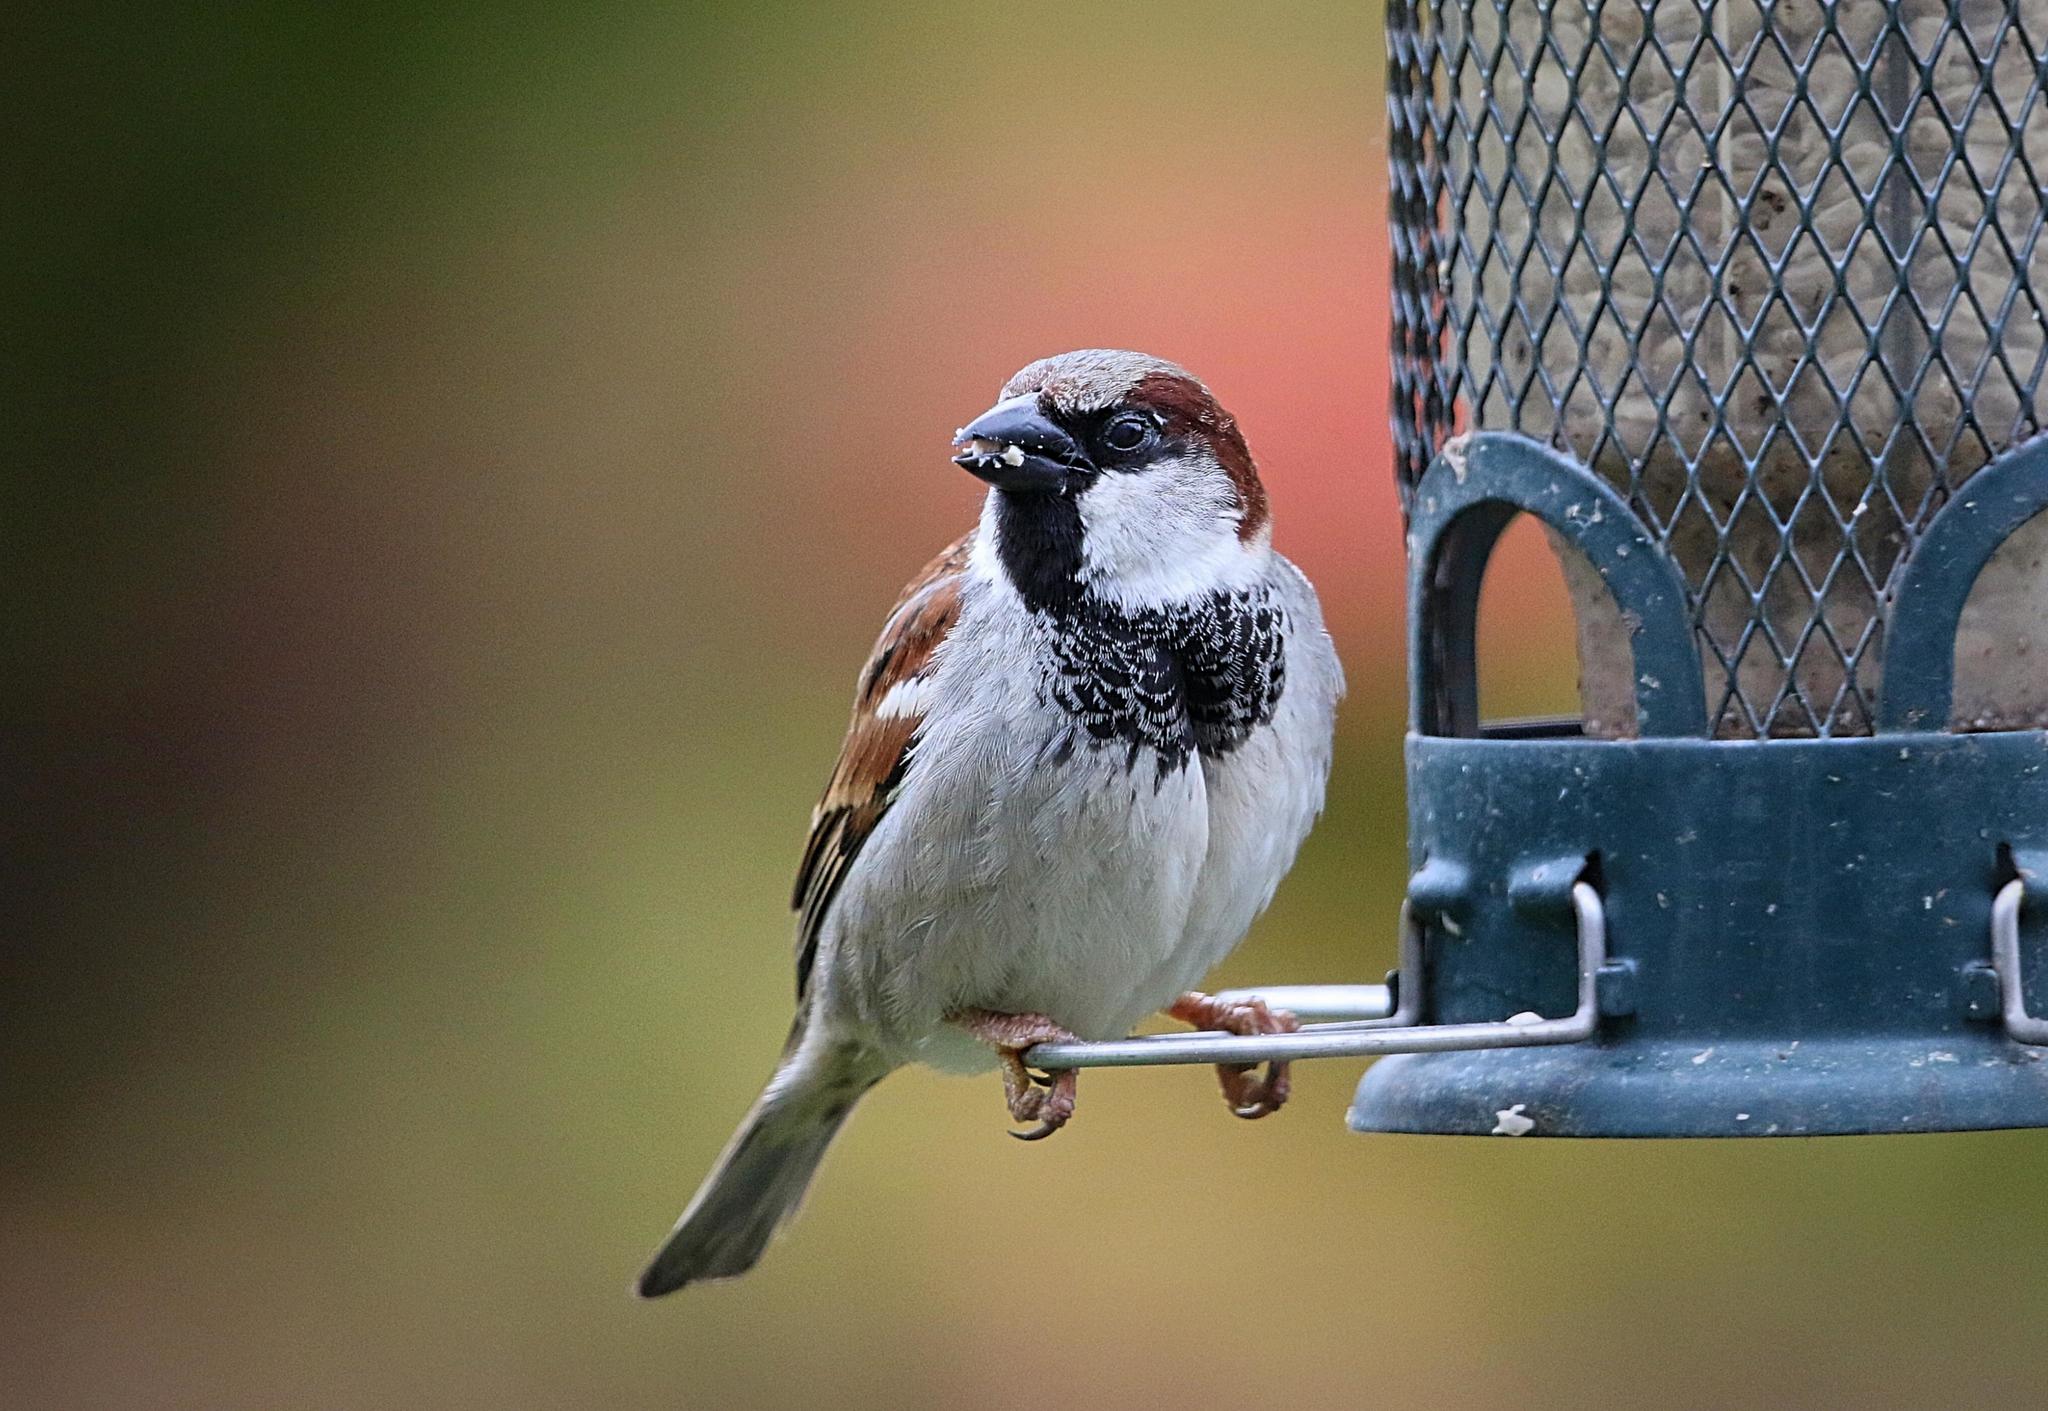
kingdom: Animalia
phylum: Chordata
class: Aves
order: Passeriformes
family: Passeridae
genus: Passer
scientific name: Passer domesticus
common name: House sparrow
